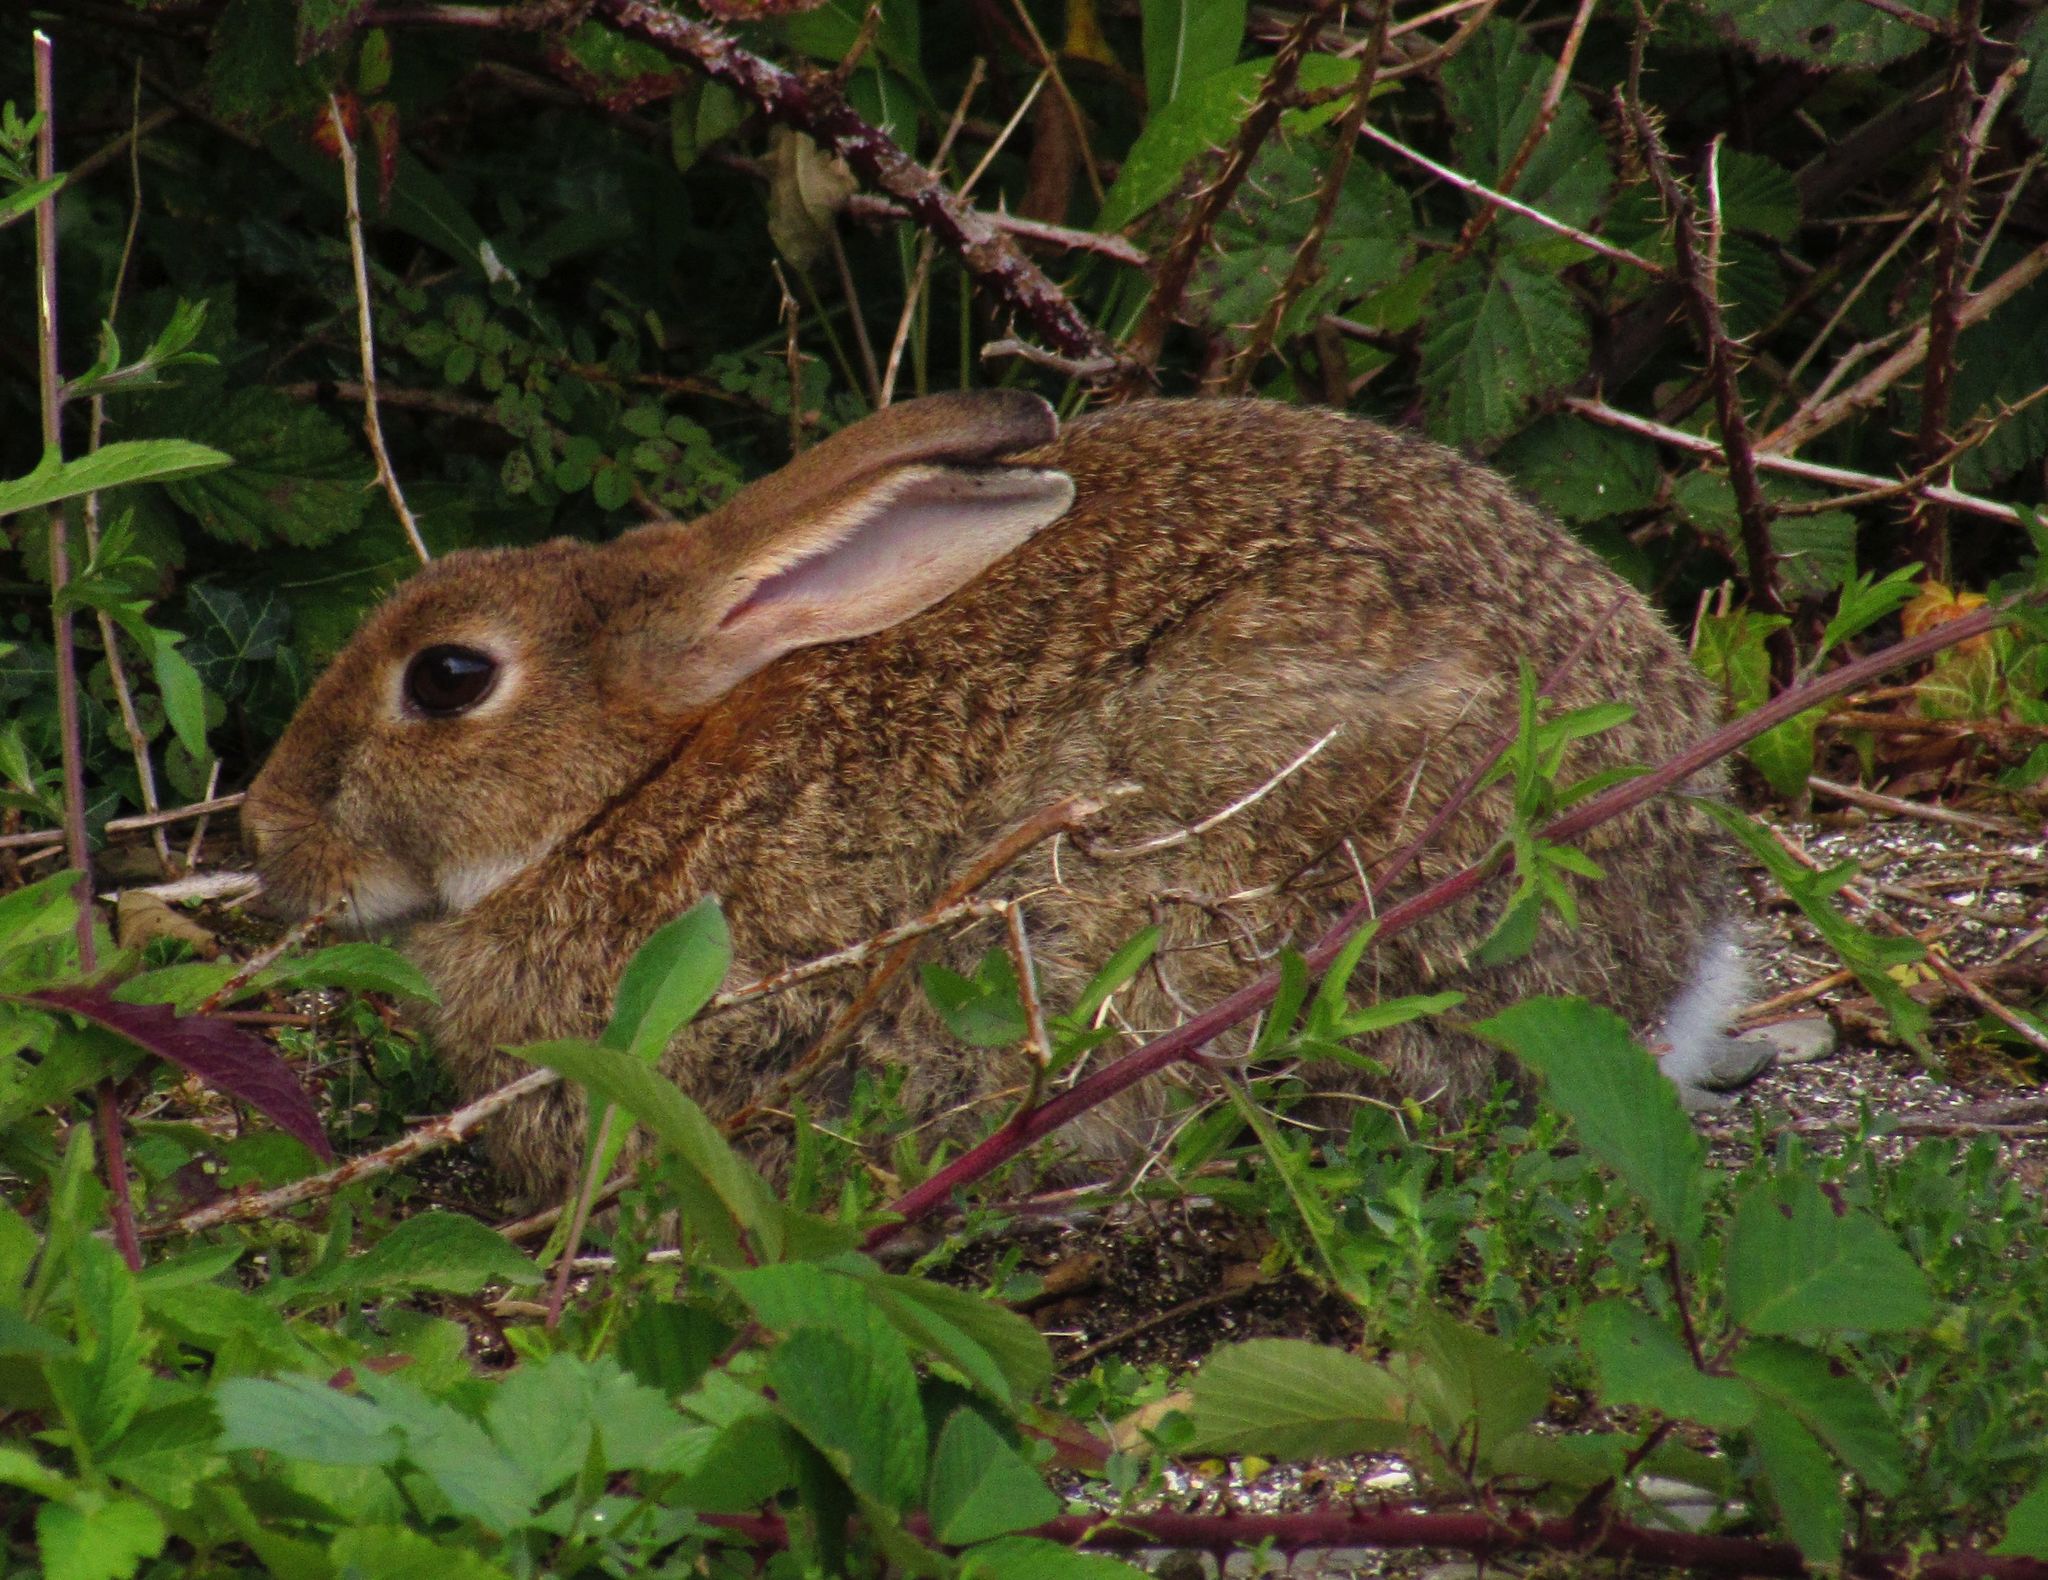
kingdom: Animalia
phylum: Chordata
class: Mammalia
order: Lagomorpha
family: Leporidae
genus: Oryctolagus
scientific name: Oryctolagus cuniculus
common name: European rabbit
